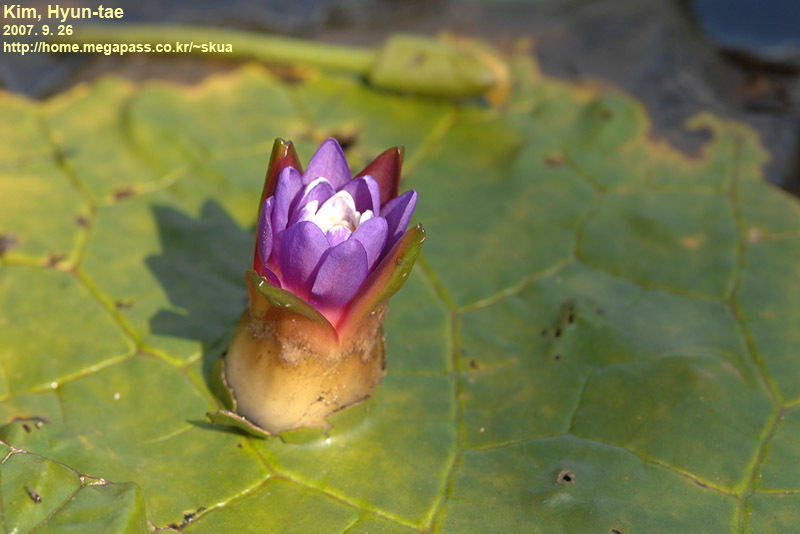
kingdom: Plantae
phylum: Tracheophyta
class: Magnoliopsida
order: Nymphaeales
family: Nymphaeaceae
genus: Euryale
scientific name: Euryale ferox
